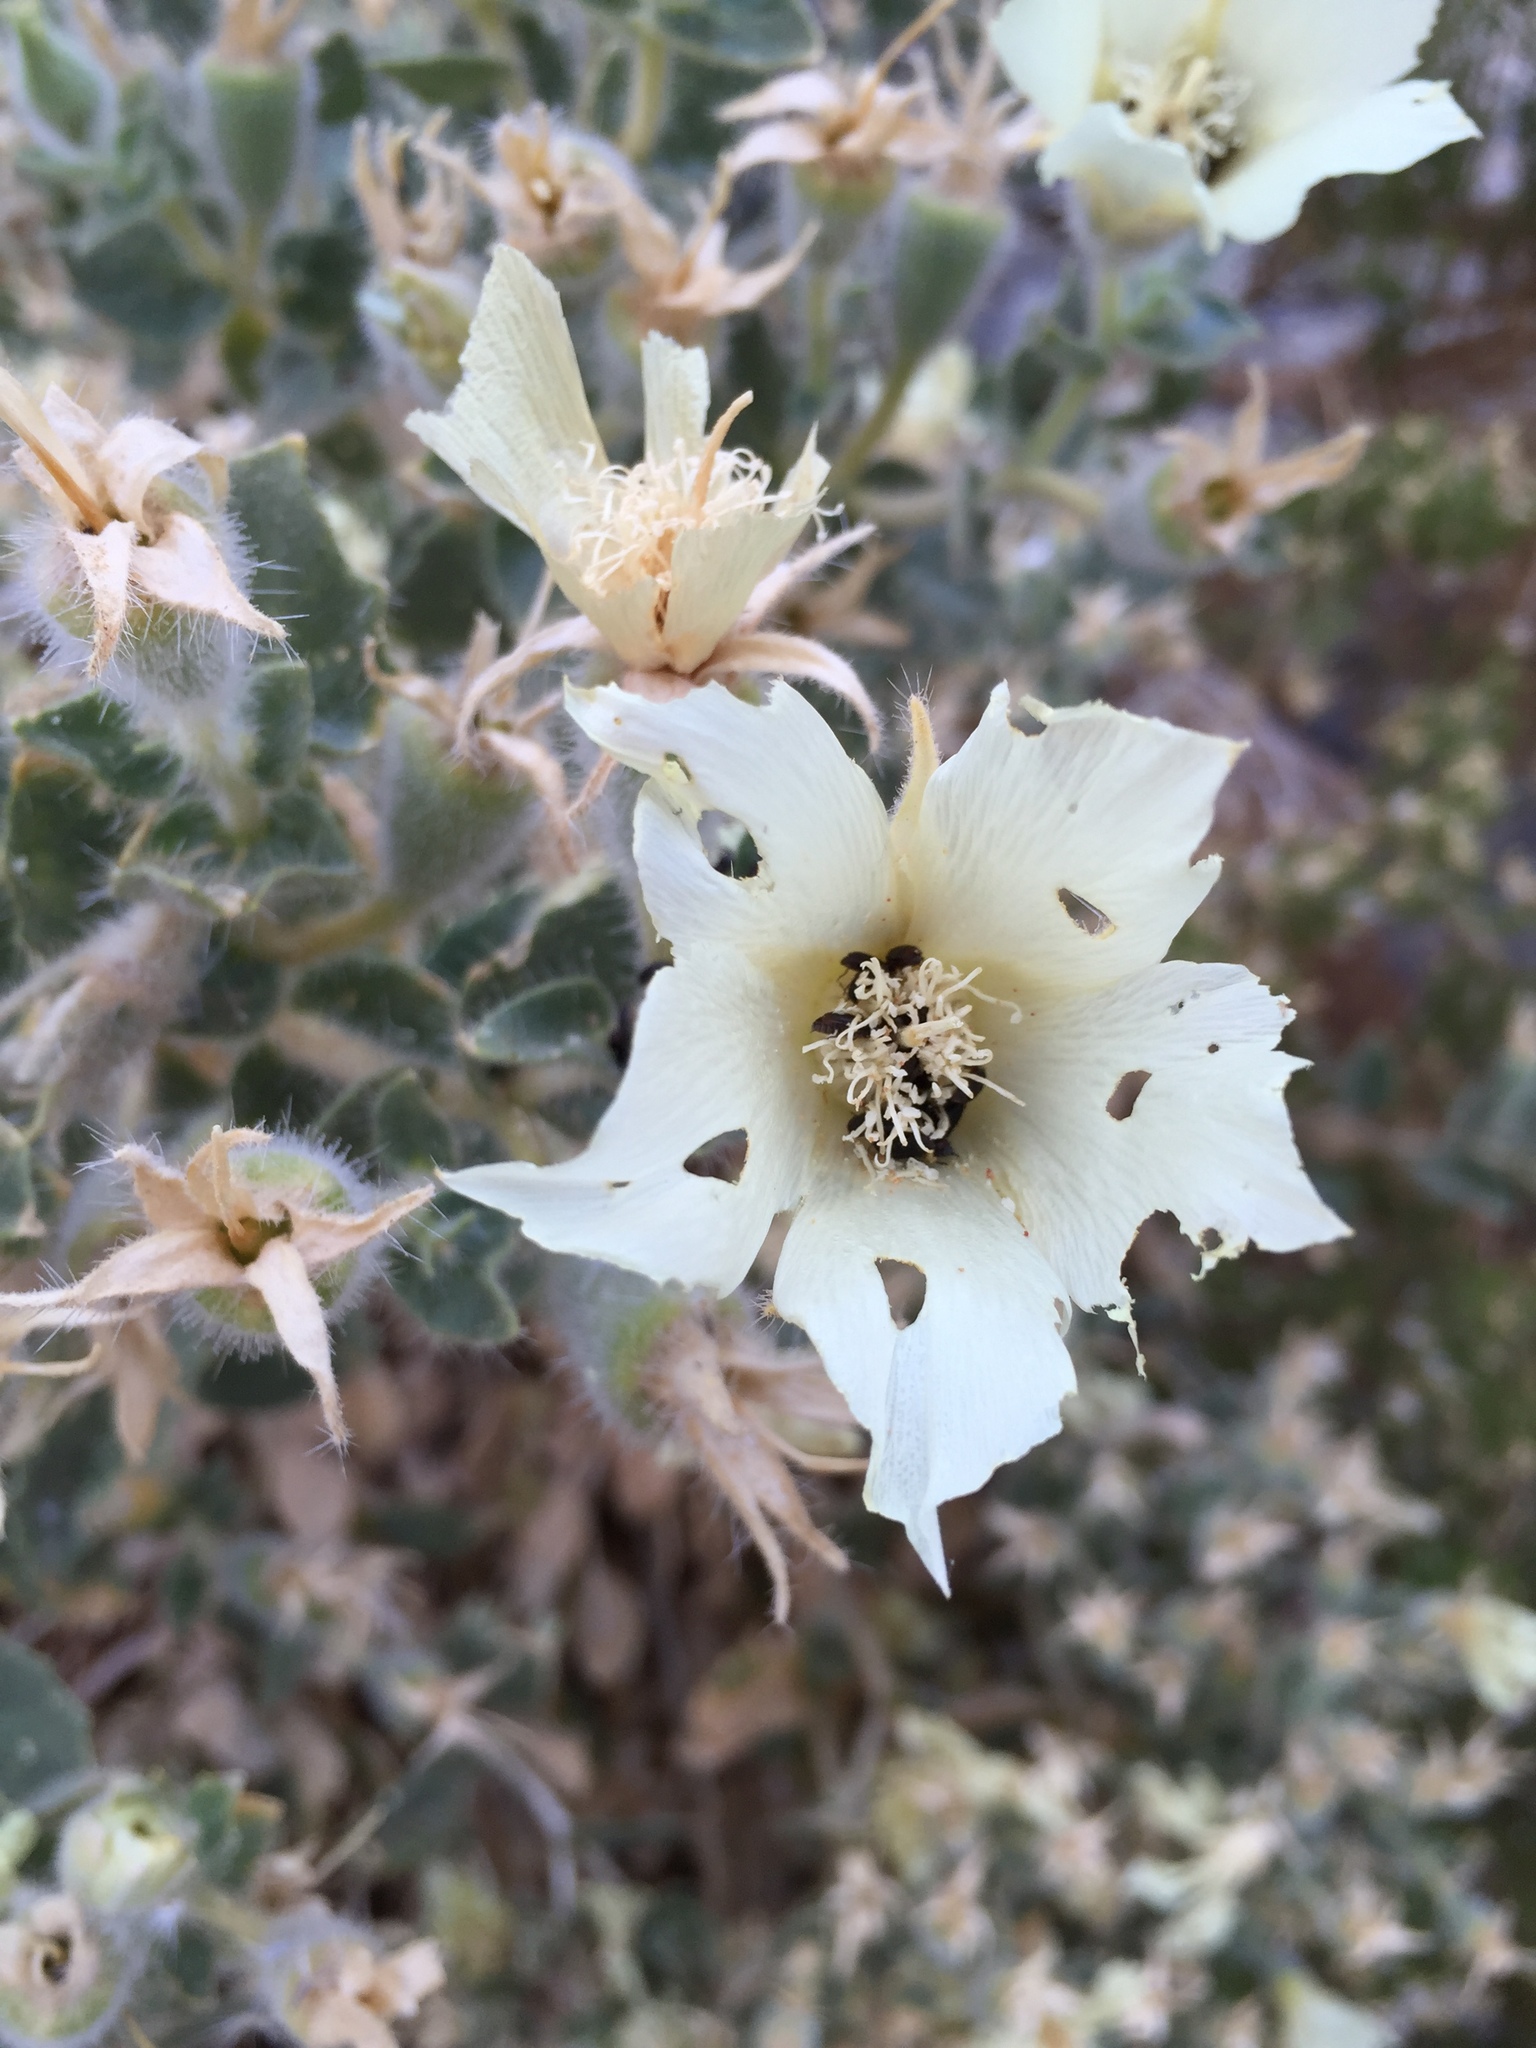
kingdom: Plantae
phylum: Tracheophyta
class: Magnoliopsida
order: Cornales
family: Loasaceae
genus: Eucnide
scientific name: Eucnide urens
